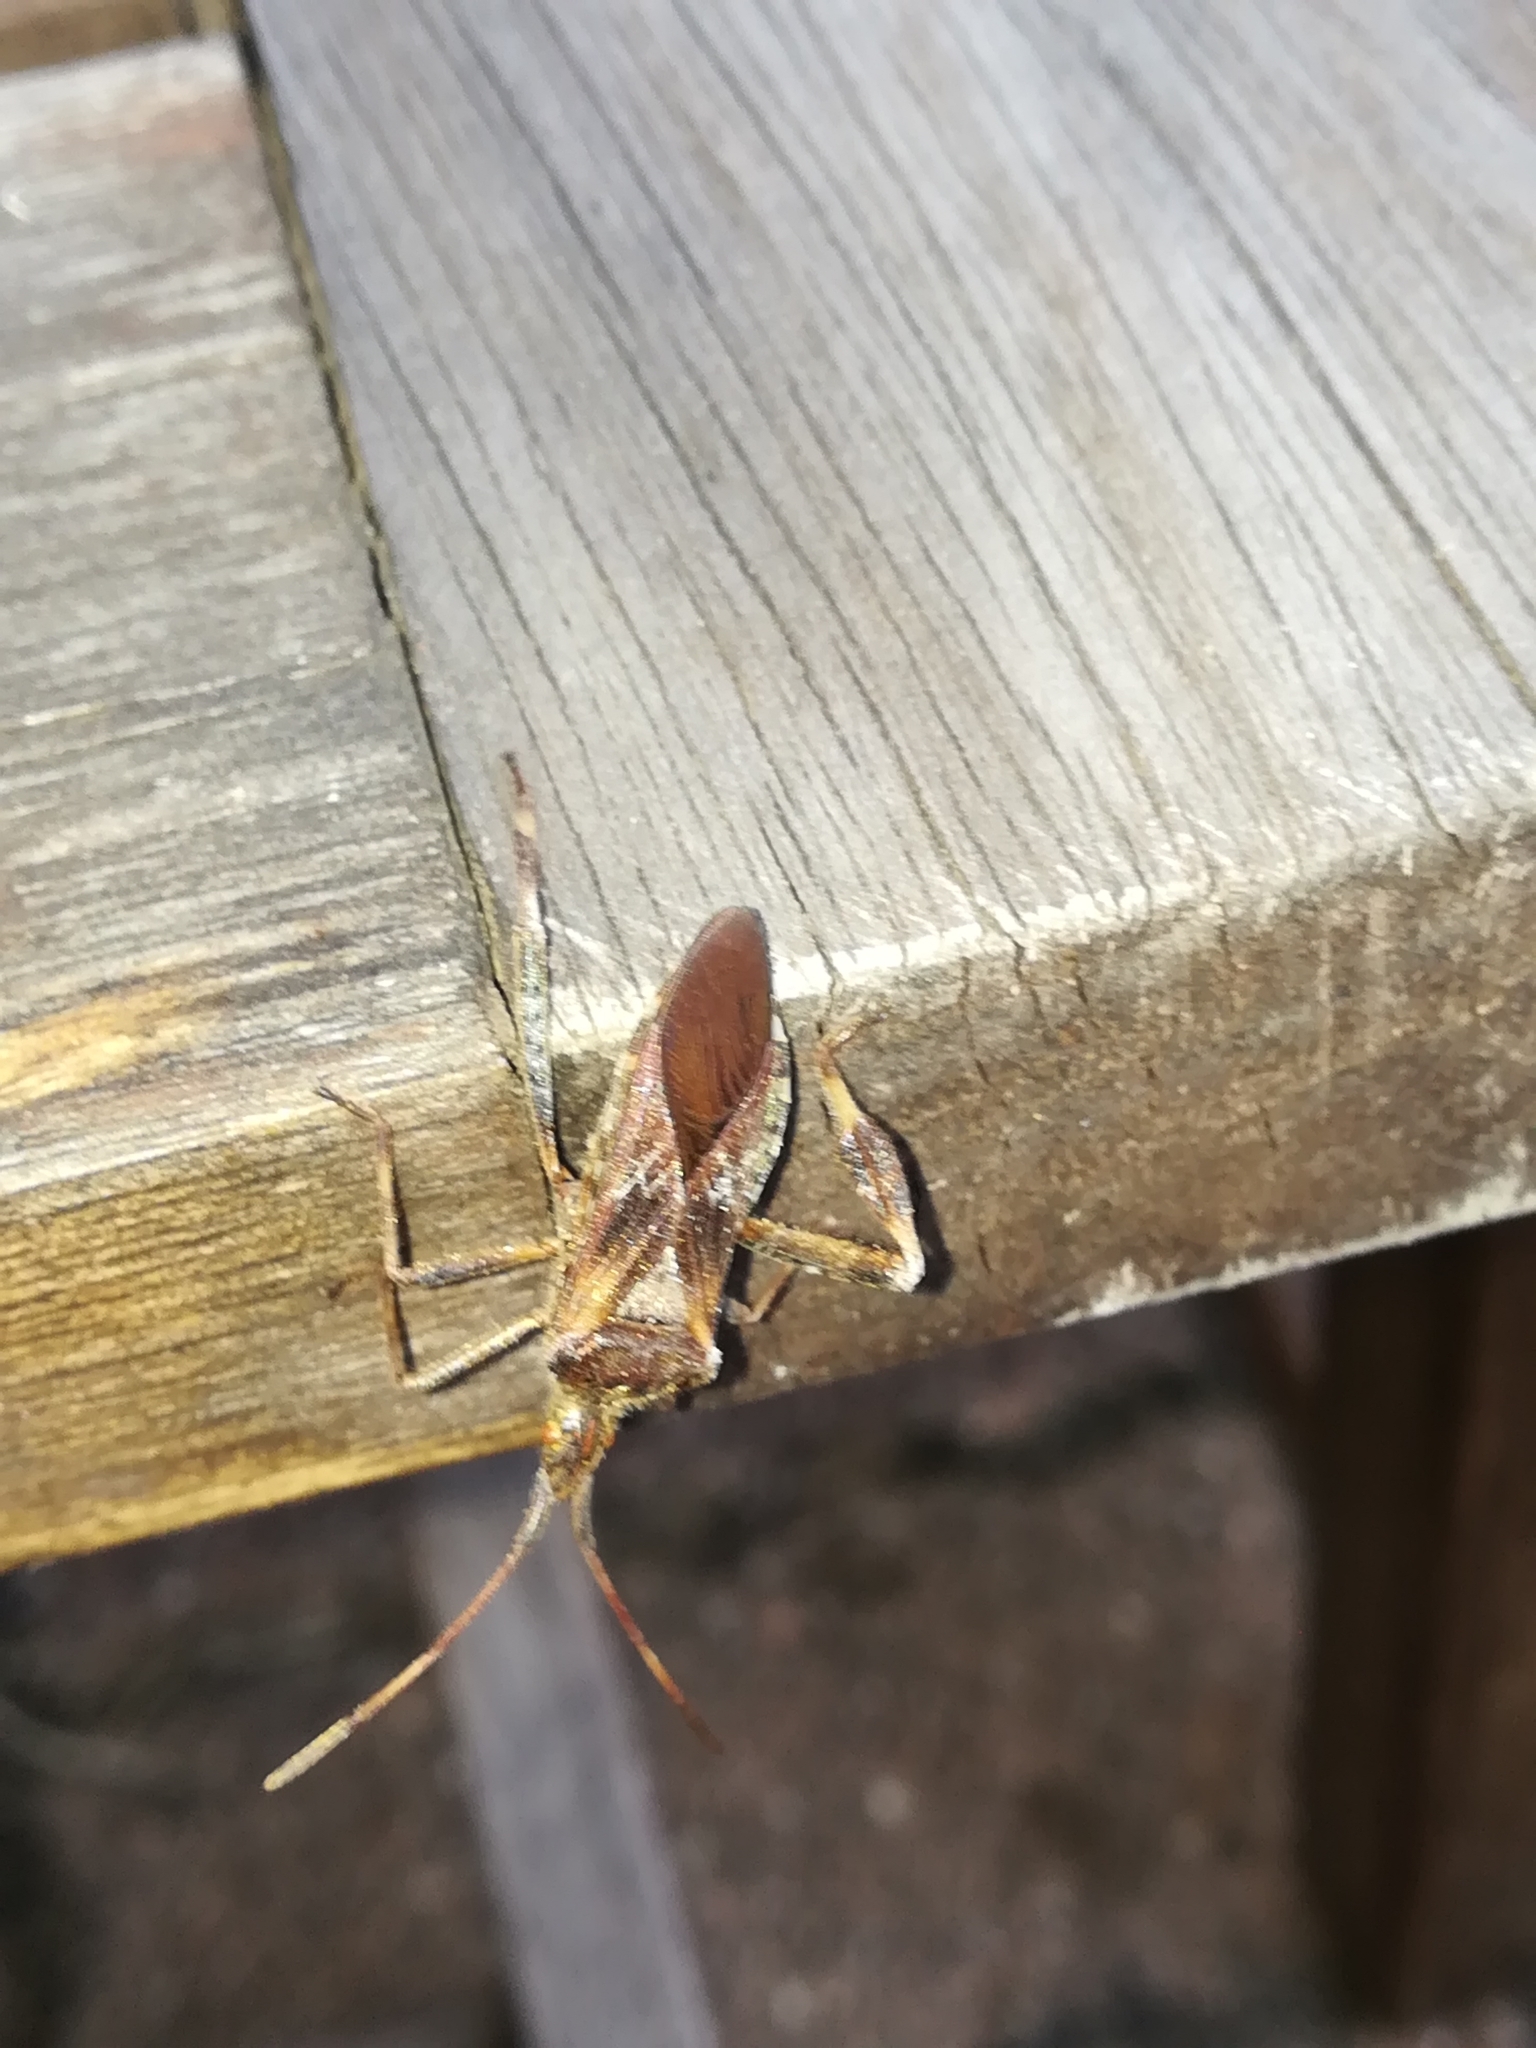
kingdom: Animalia
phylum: Arthropoda
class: Insecta
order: Hemiptera
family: Coreidae
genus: Leptoglossus
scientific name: Leptoglossus occidentalis
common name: Western conifer-seed bug
